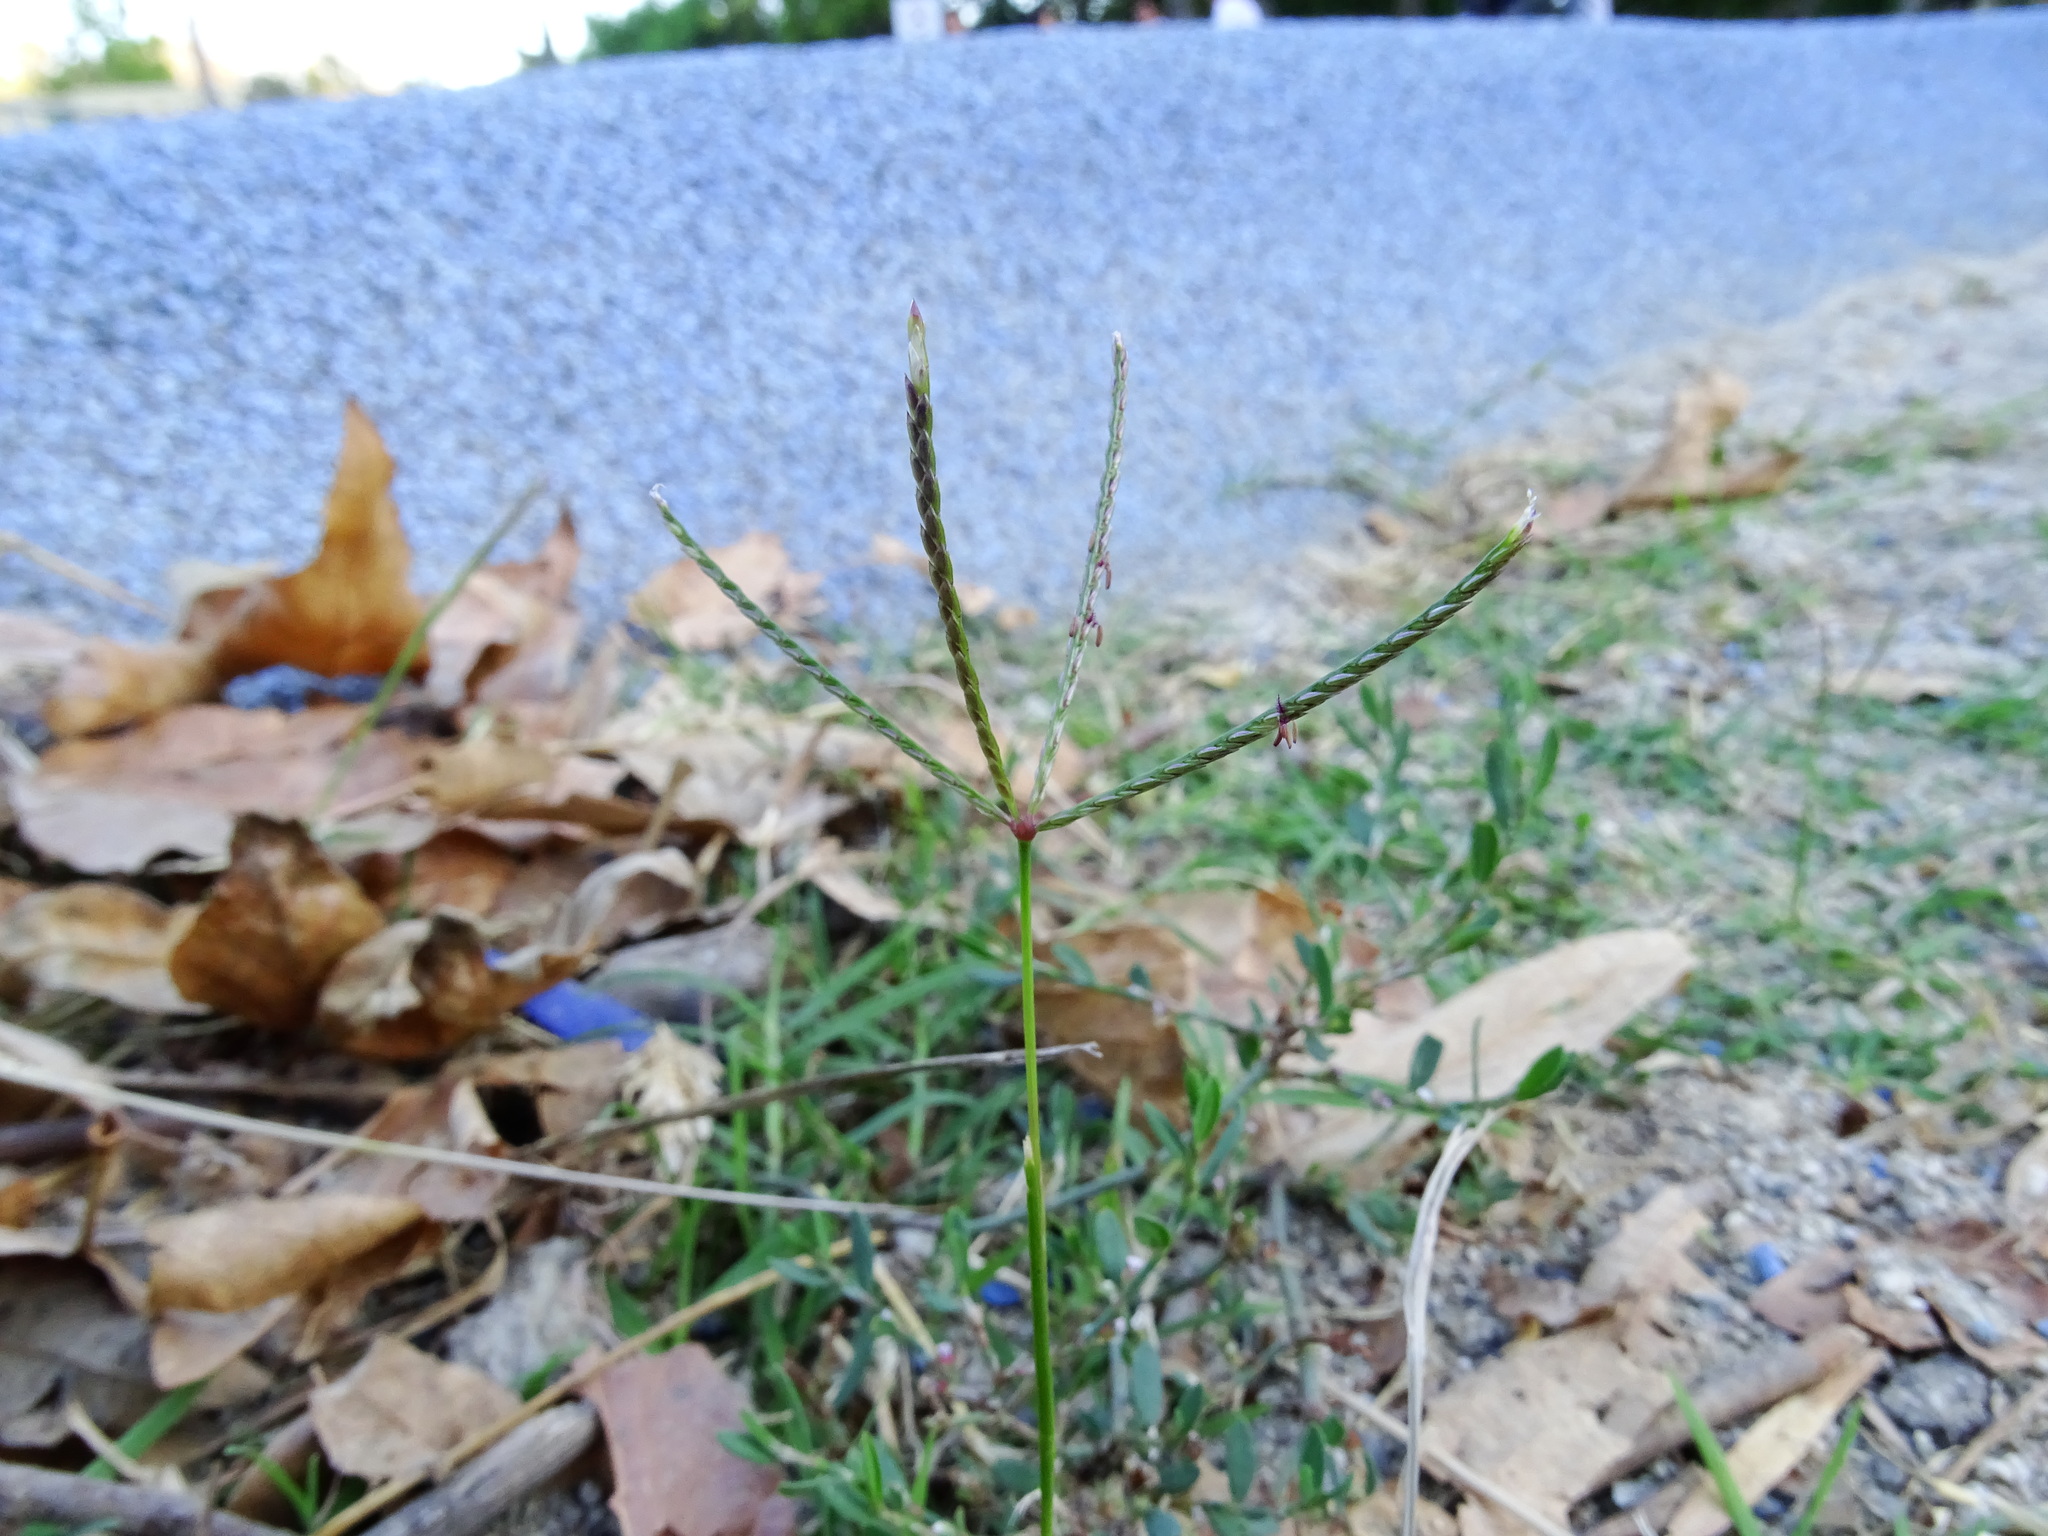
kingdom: Plantae
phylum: Tracheophyta
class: Liliopsida
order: Poales
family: Poaceae
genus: Cynodon
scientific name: Cynodon dactylon
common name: Bermuda grass
